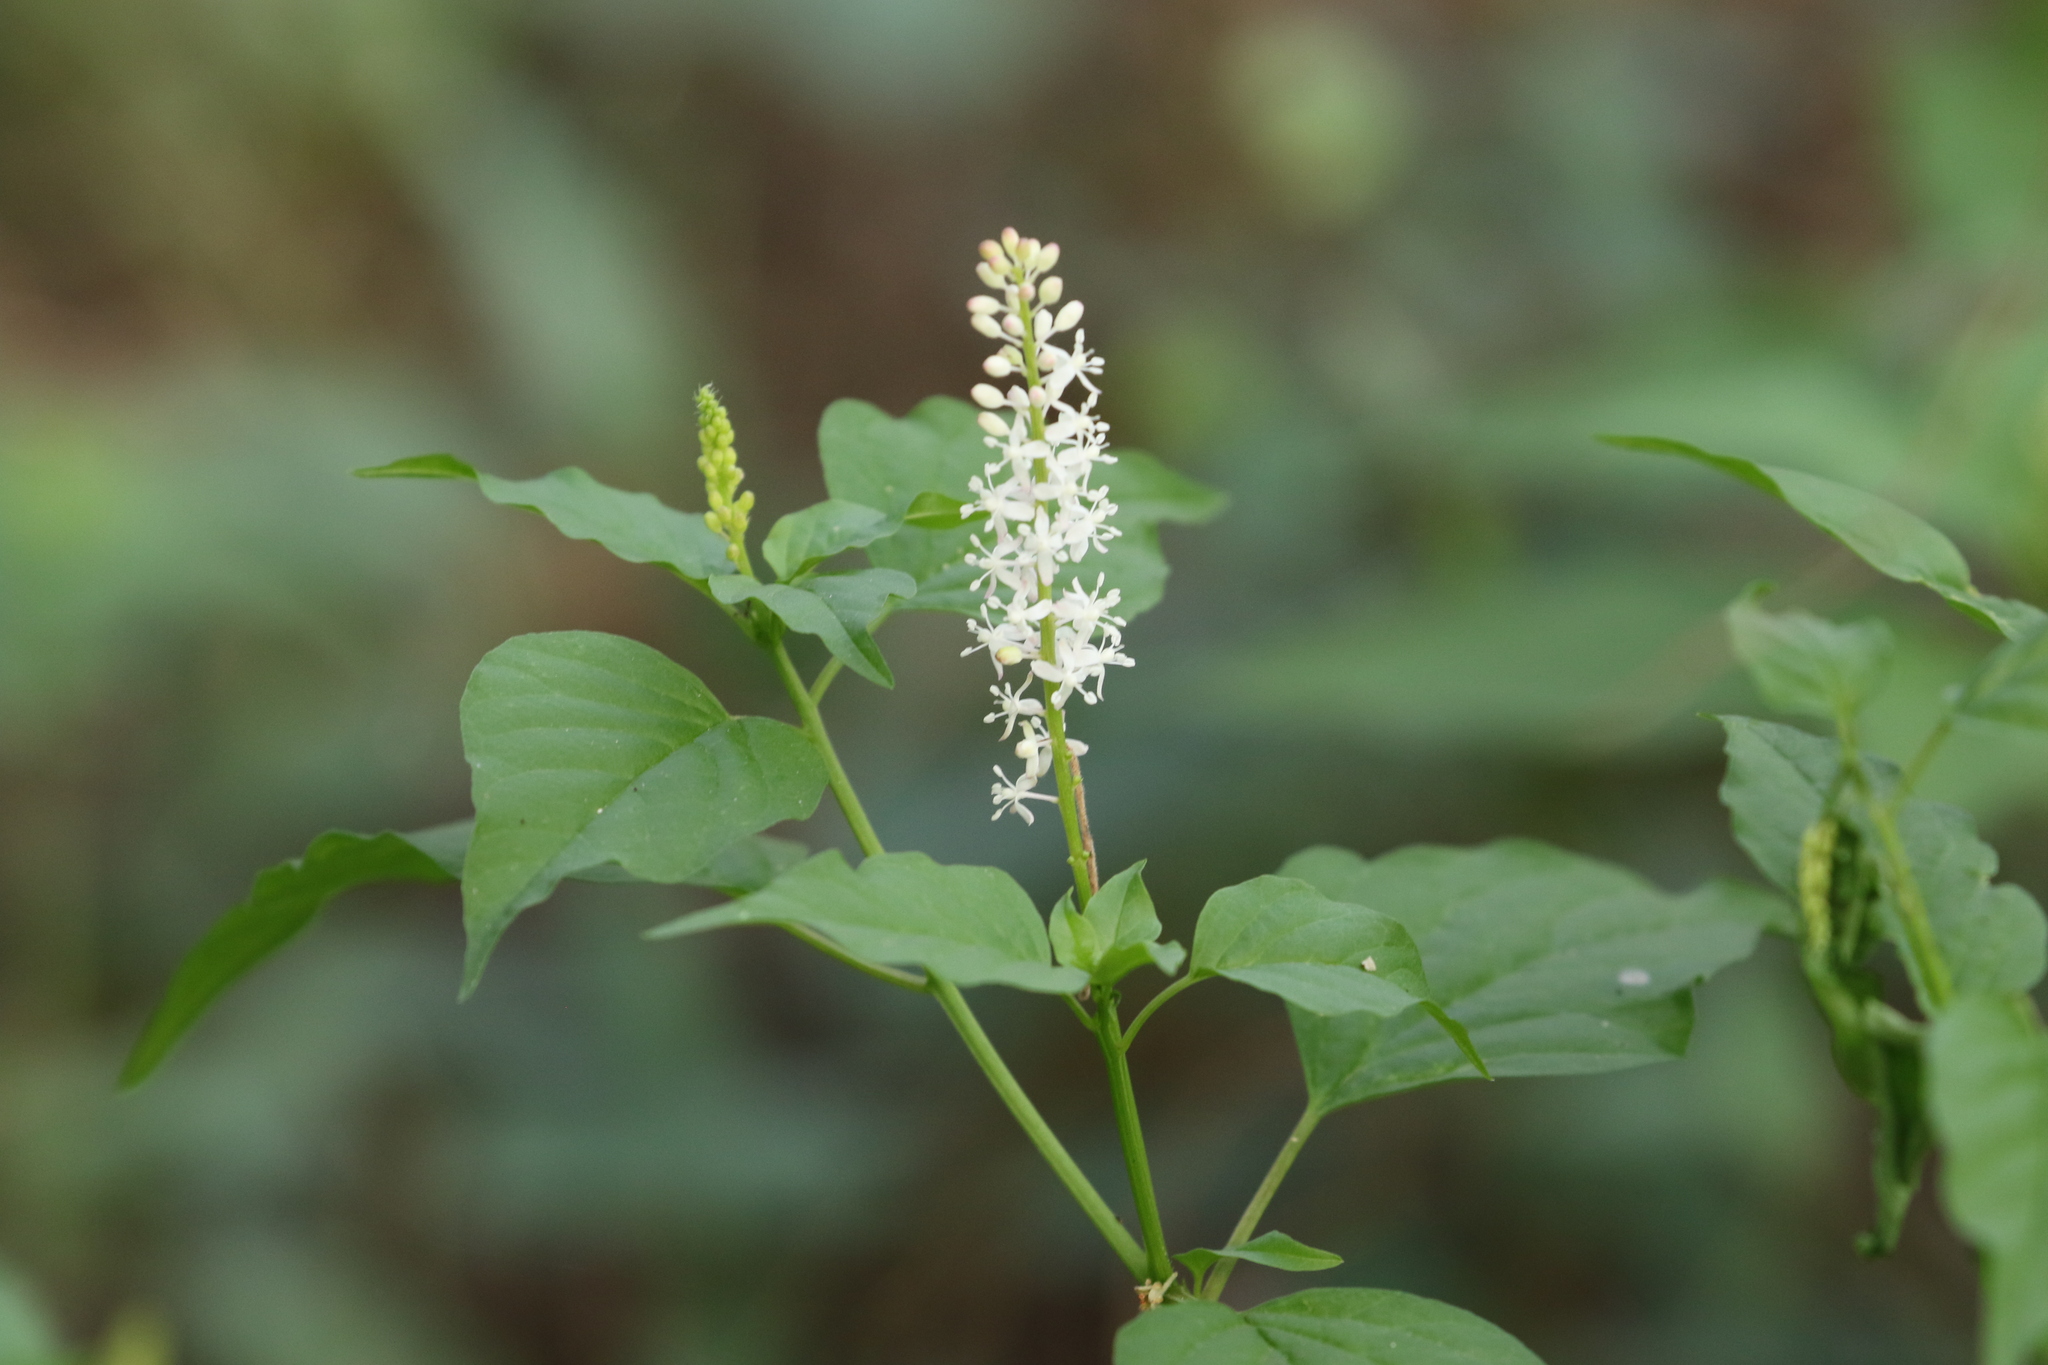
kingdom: Plantae
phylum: Tracheophyta
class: Magnoliopsida
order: Caryophyllales
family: Phytolaccaceae
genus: Rivina
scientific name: Rivina humilis
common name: Rougeplant
